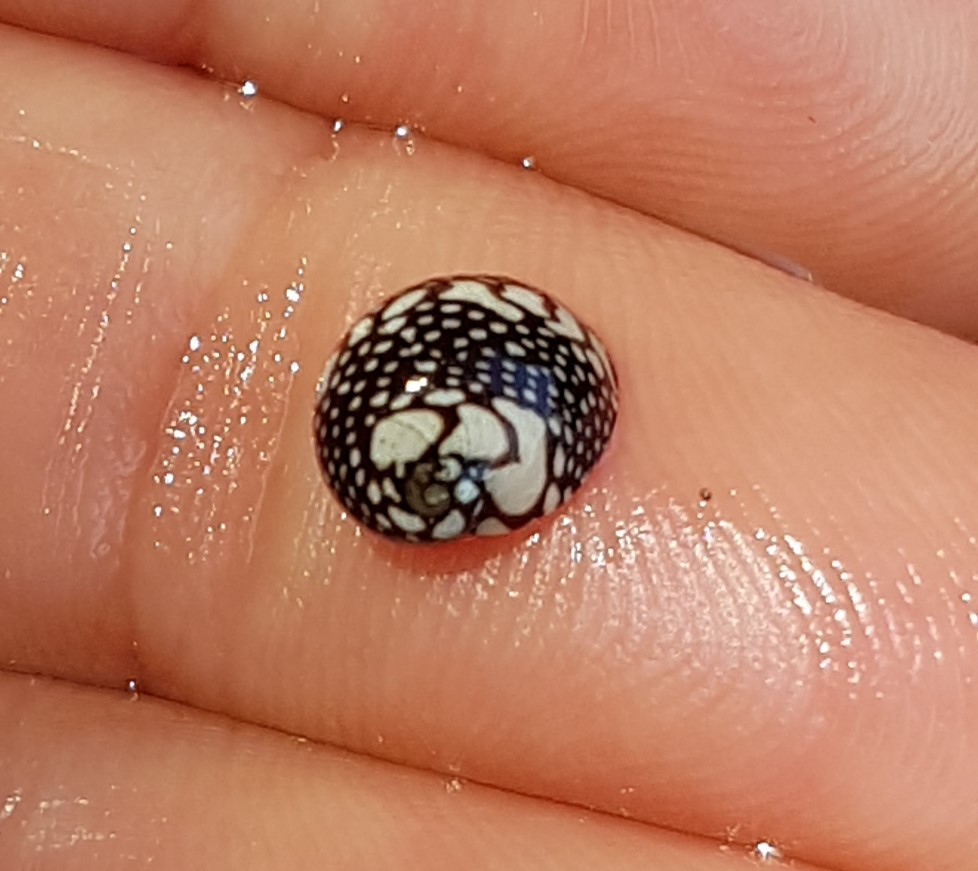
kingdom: Animalia
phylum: Mollusca
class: Gastropoda
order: Cycloneritida
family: Neritidae
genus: Puperita
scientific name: Puperita pupa
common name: Zebra nerite
